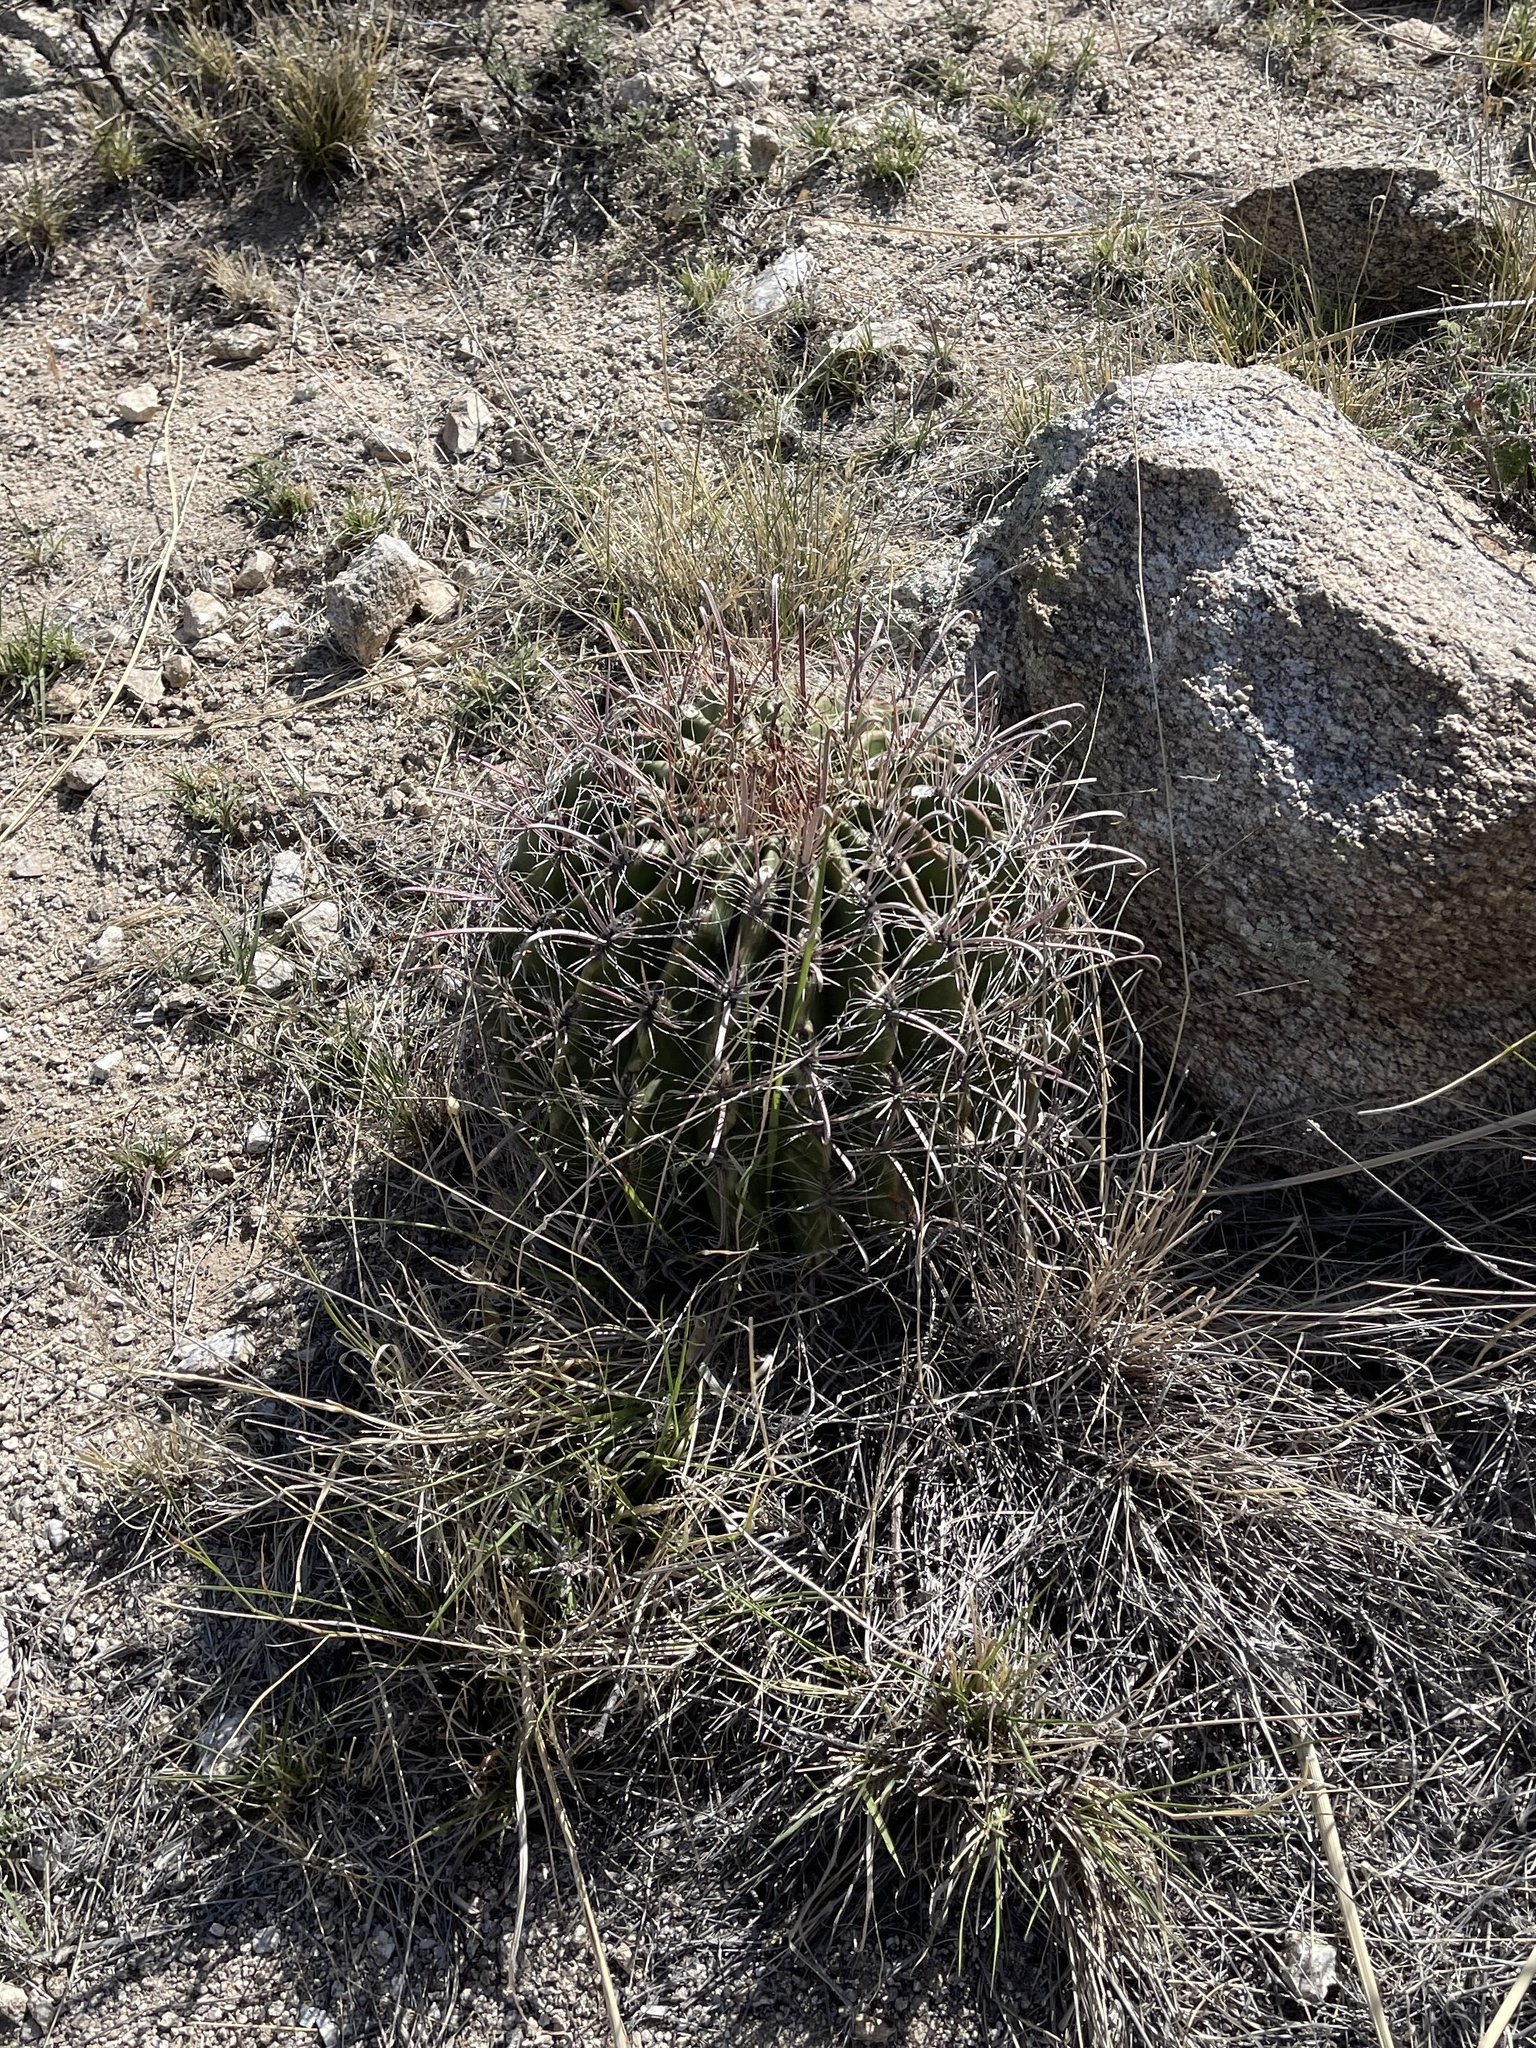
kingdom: Plantae
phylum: Tracheophyta
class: Magnoliopsida
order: Caryophyllales
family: Cactaceae
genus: Ferocactus
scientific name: Ferocactus wislizeni
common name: Candy barrel cactus
